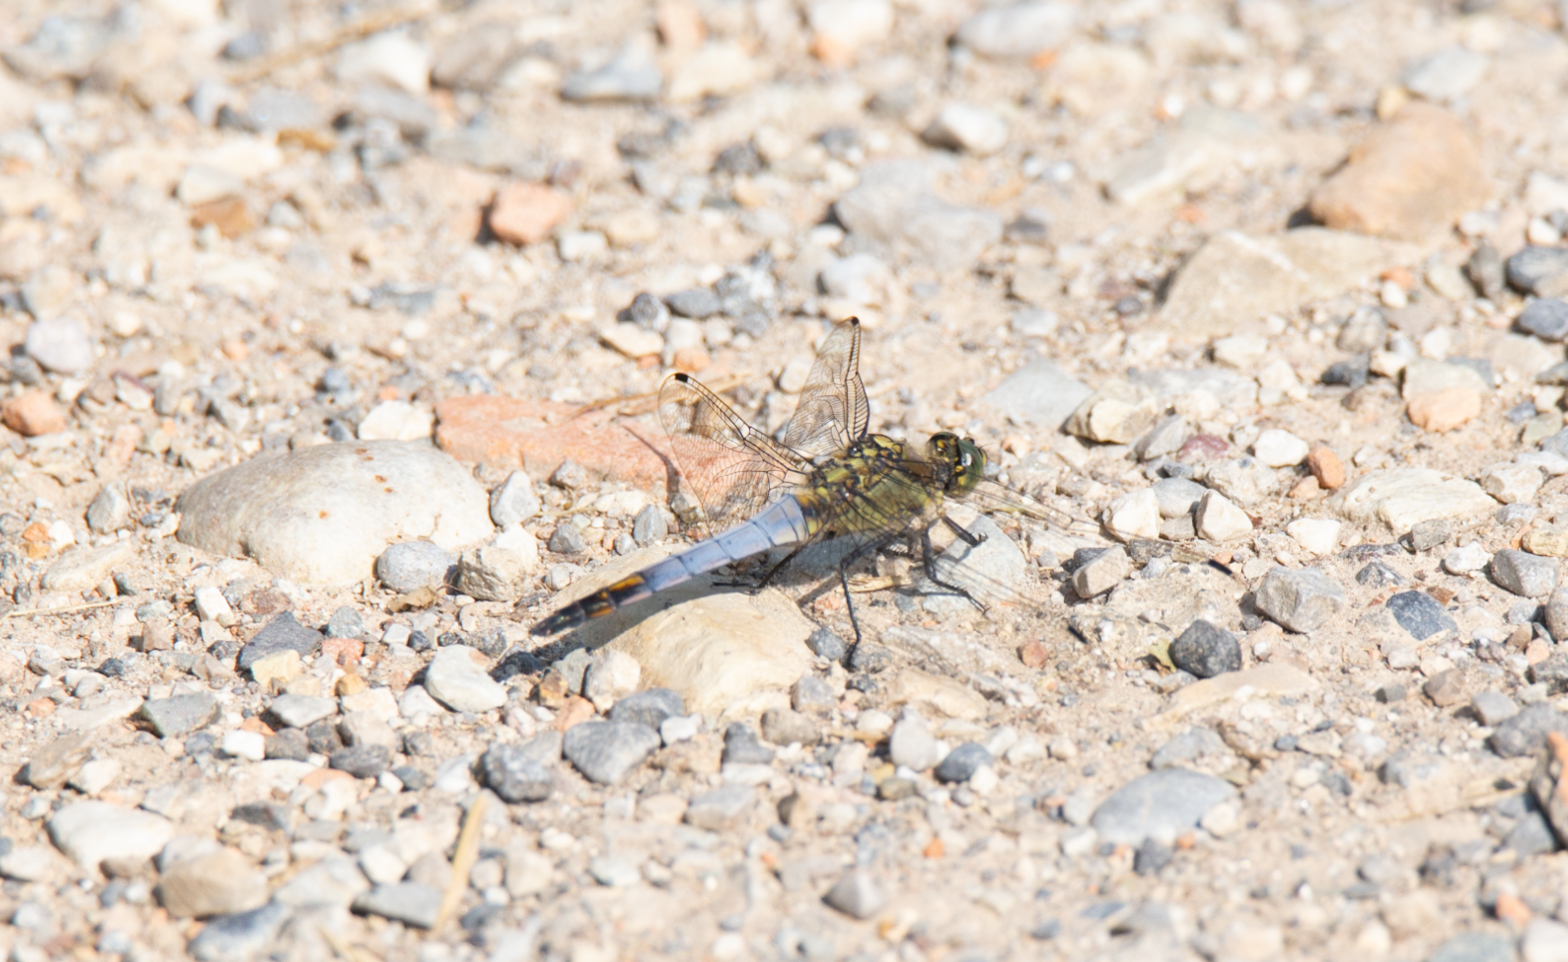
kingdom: Animalia
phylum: Arthropoda
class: Insecta
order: Odonata
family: Libellulidae
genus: Orthetrum
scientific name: Orthetrum cancellatum
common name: Black-tailed skimmer
